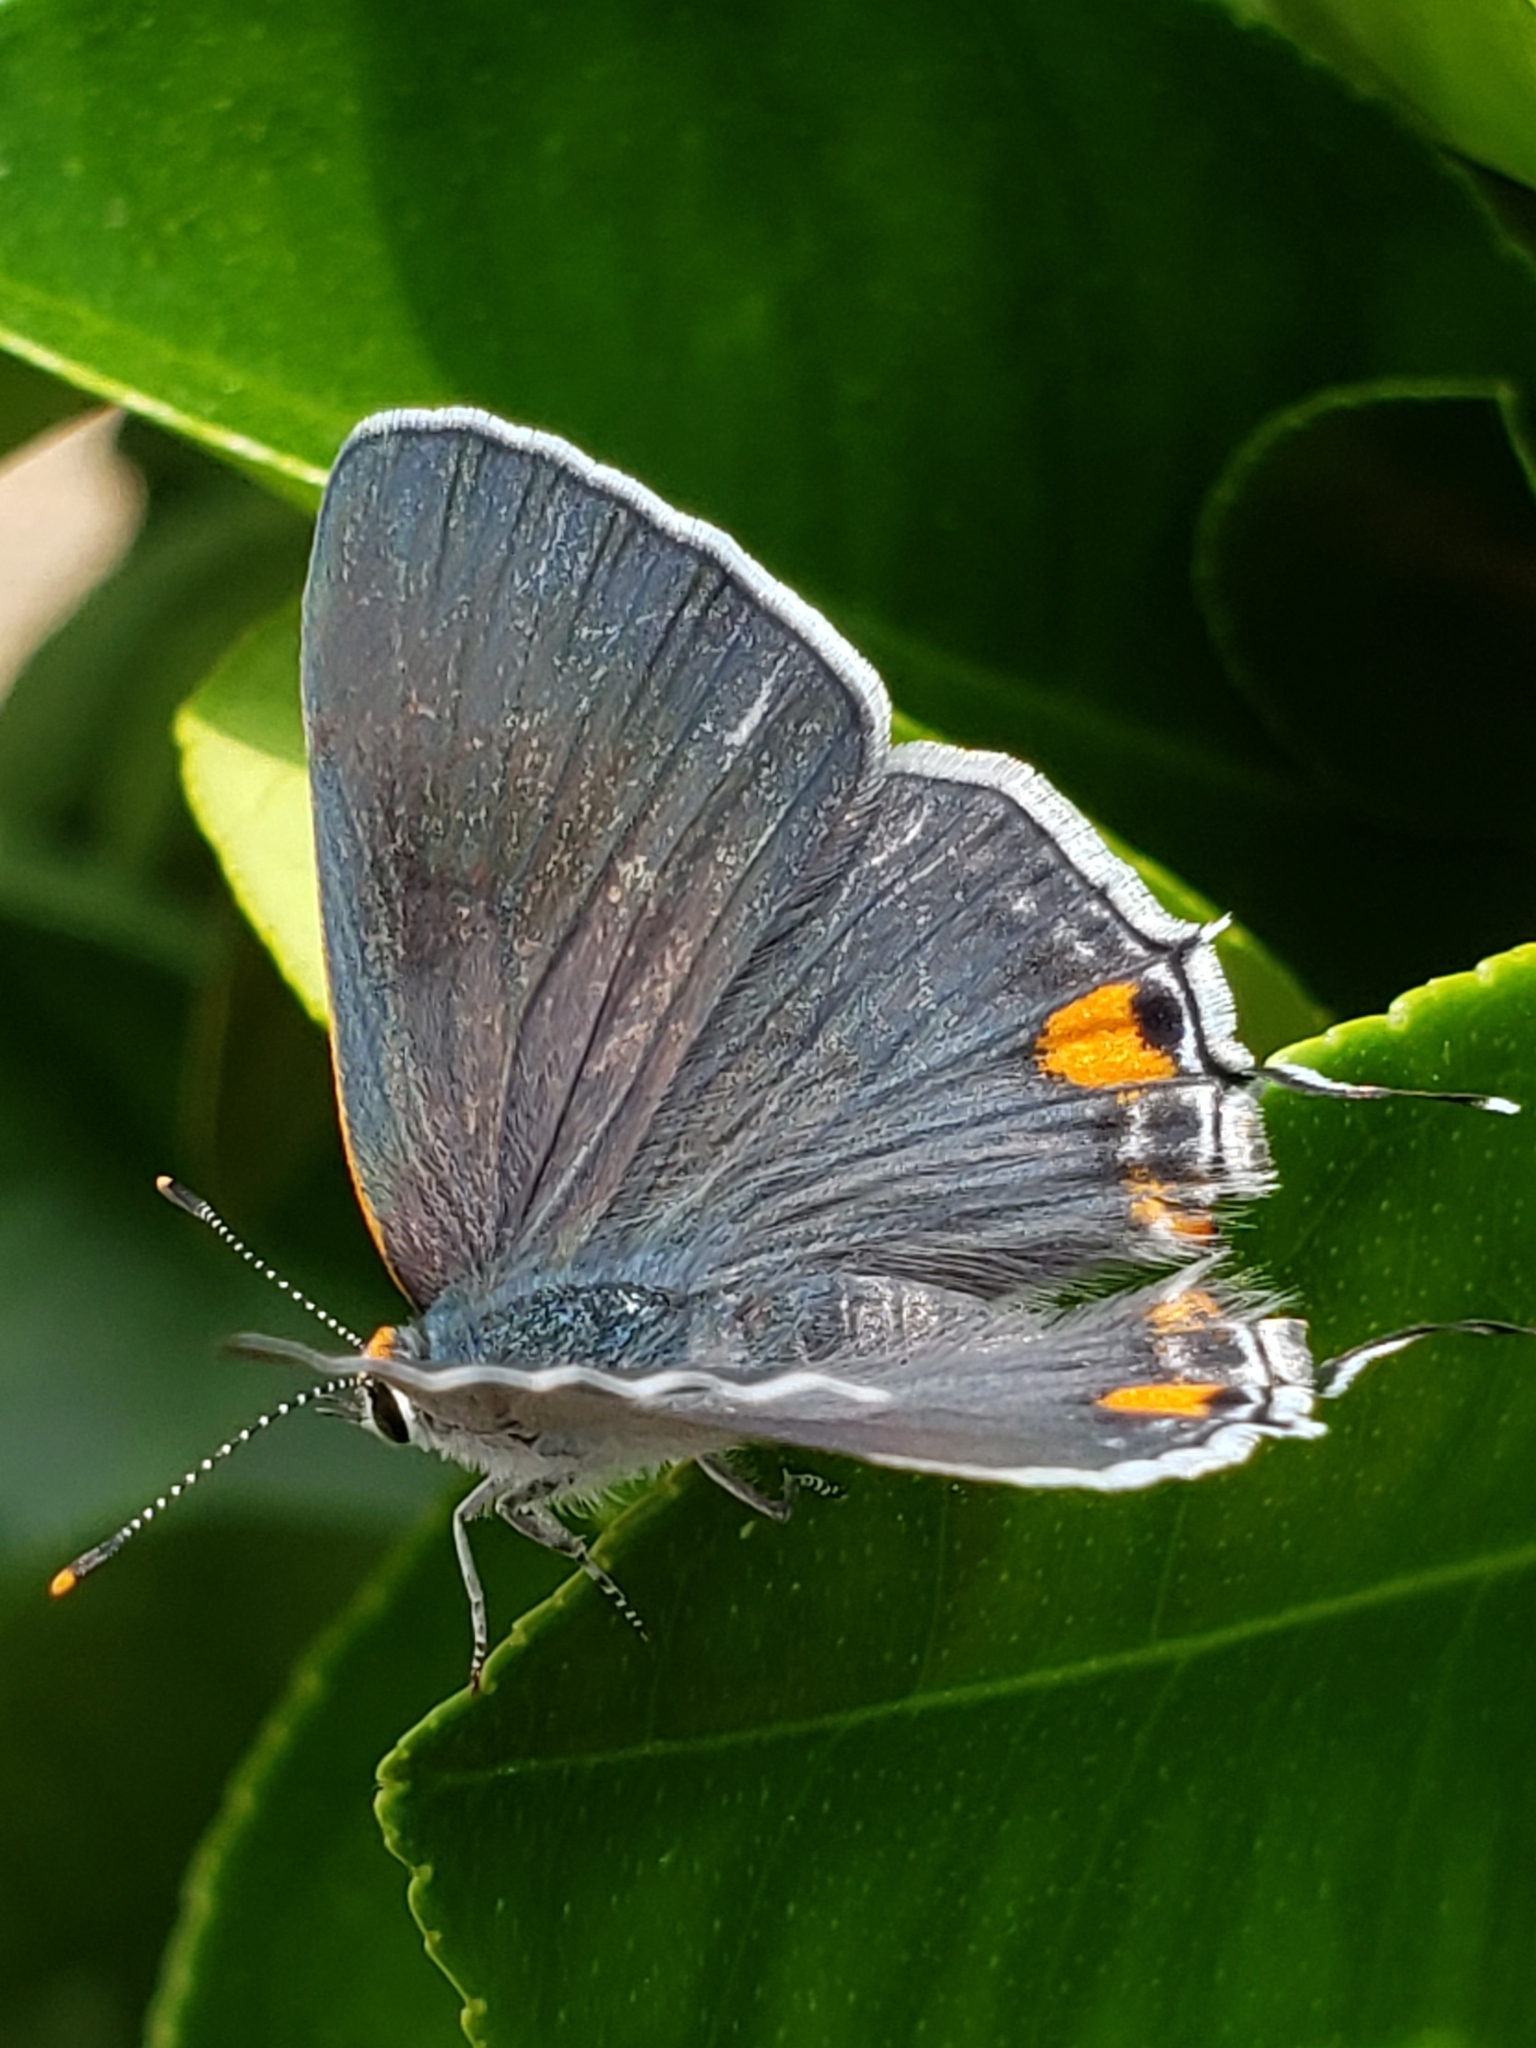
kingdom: Animalia
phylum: Arthropoda
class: Insecta
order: Lepidoptera
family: Lycaenidae
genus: Strymon
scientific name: Strymon melinus
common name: Gray hairstreak
